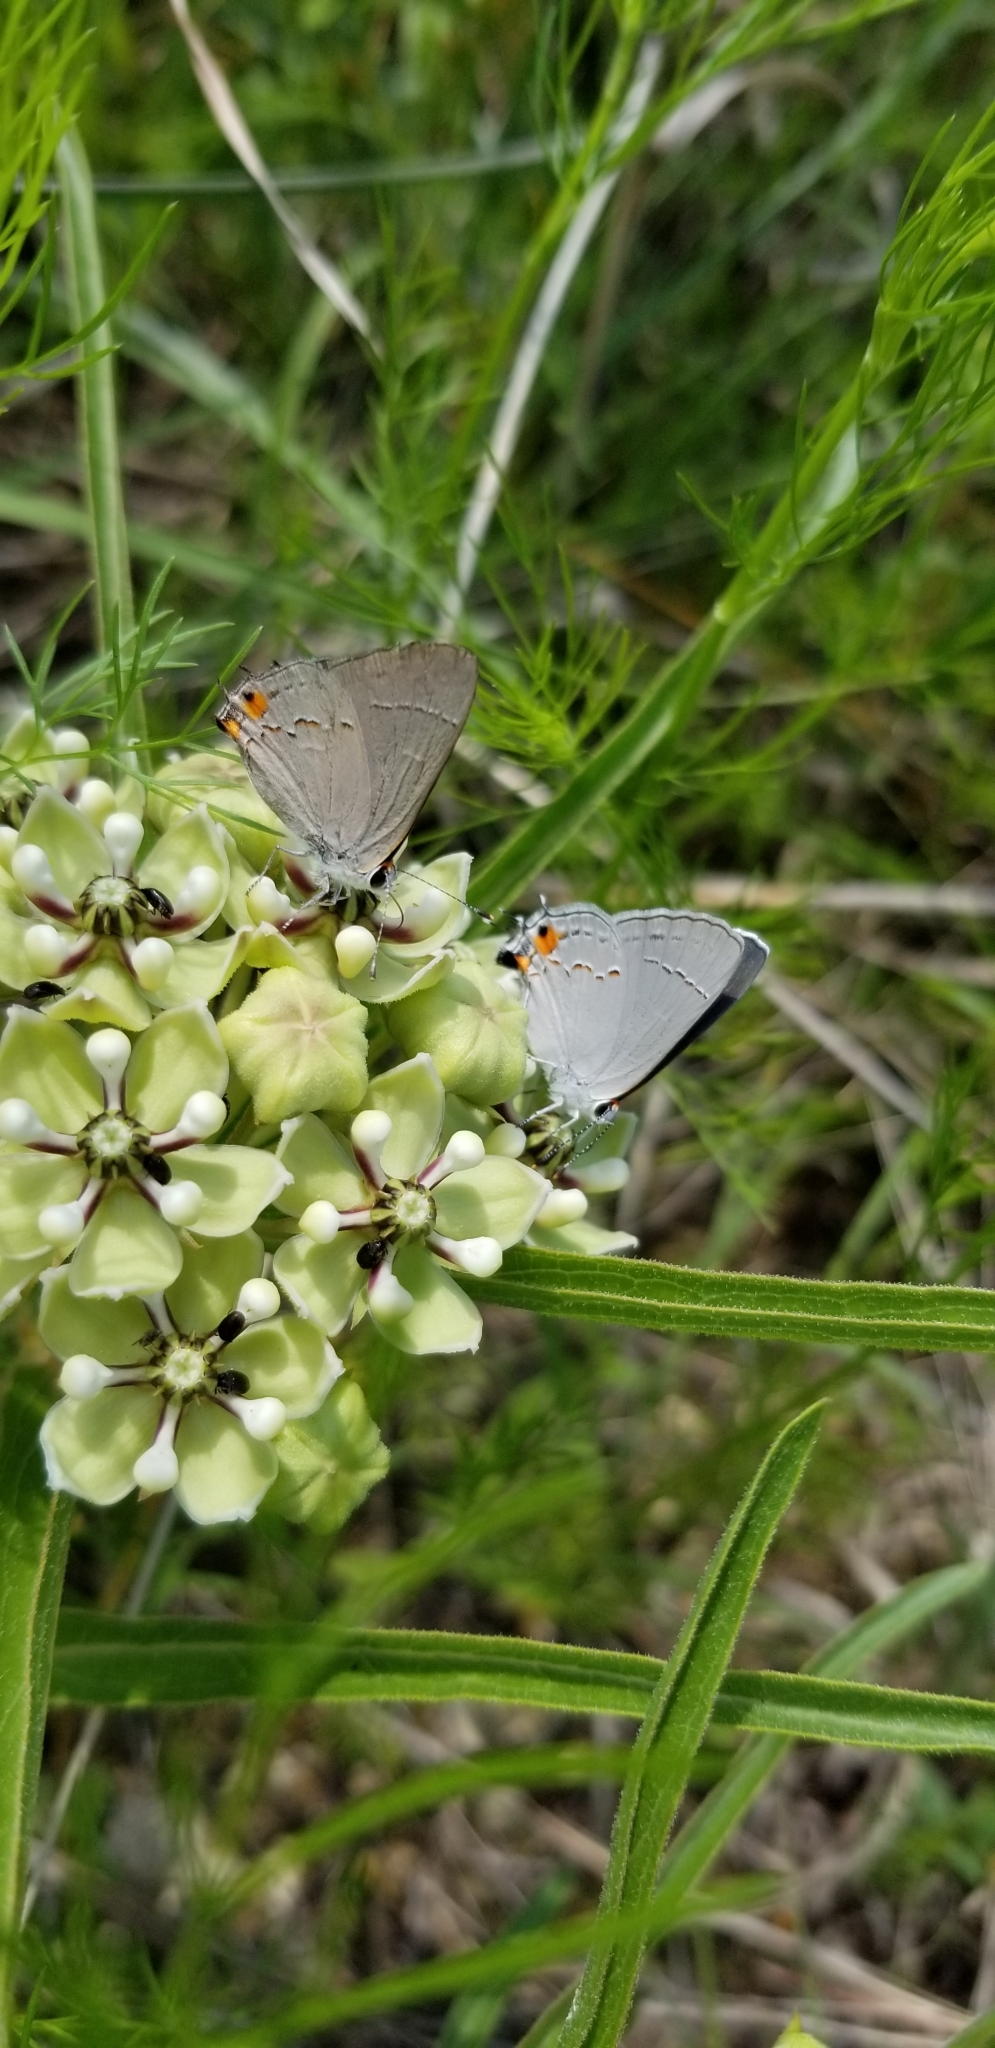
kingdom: Animalia
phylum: Arthropoda
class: Insecta
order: Lepidoptera
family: Lycaenidae
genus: Strymon
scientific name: Strymon melinus
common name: Gray hairstreak
